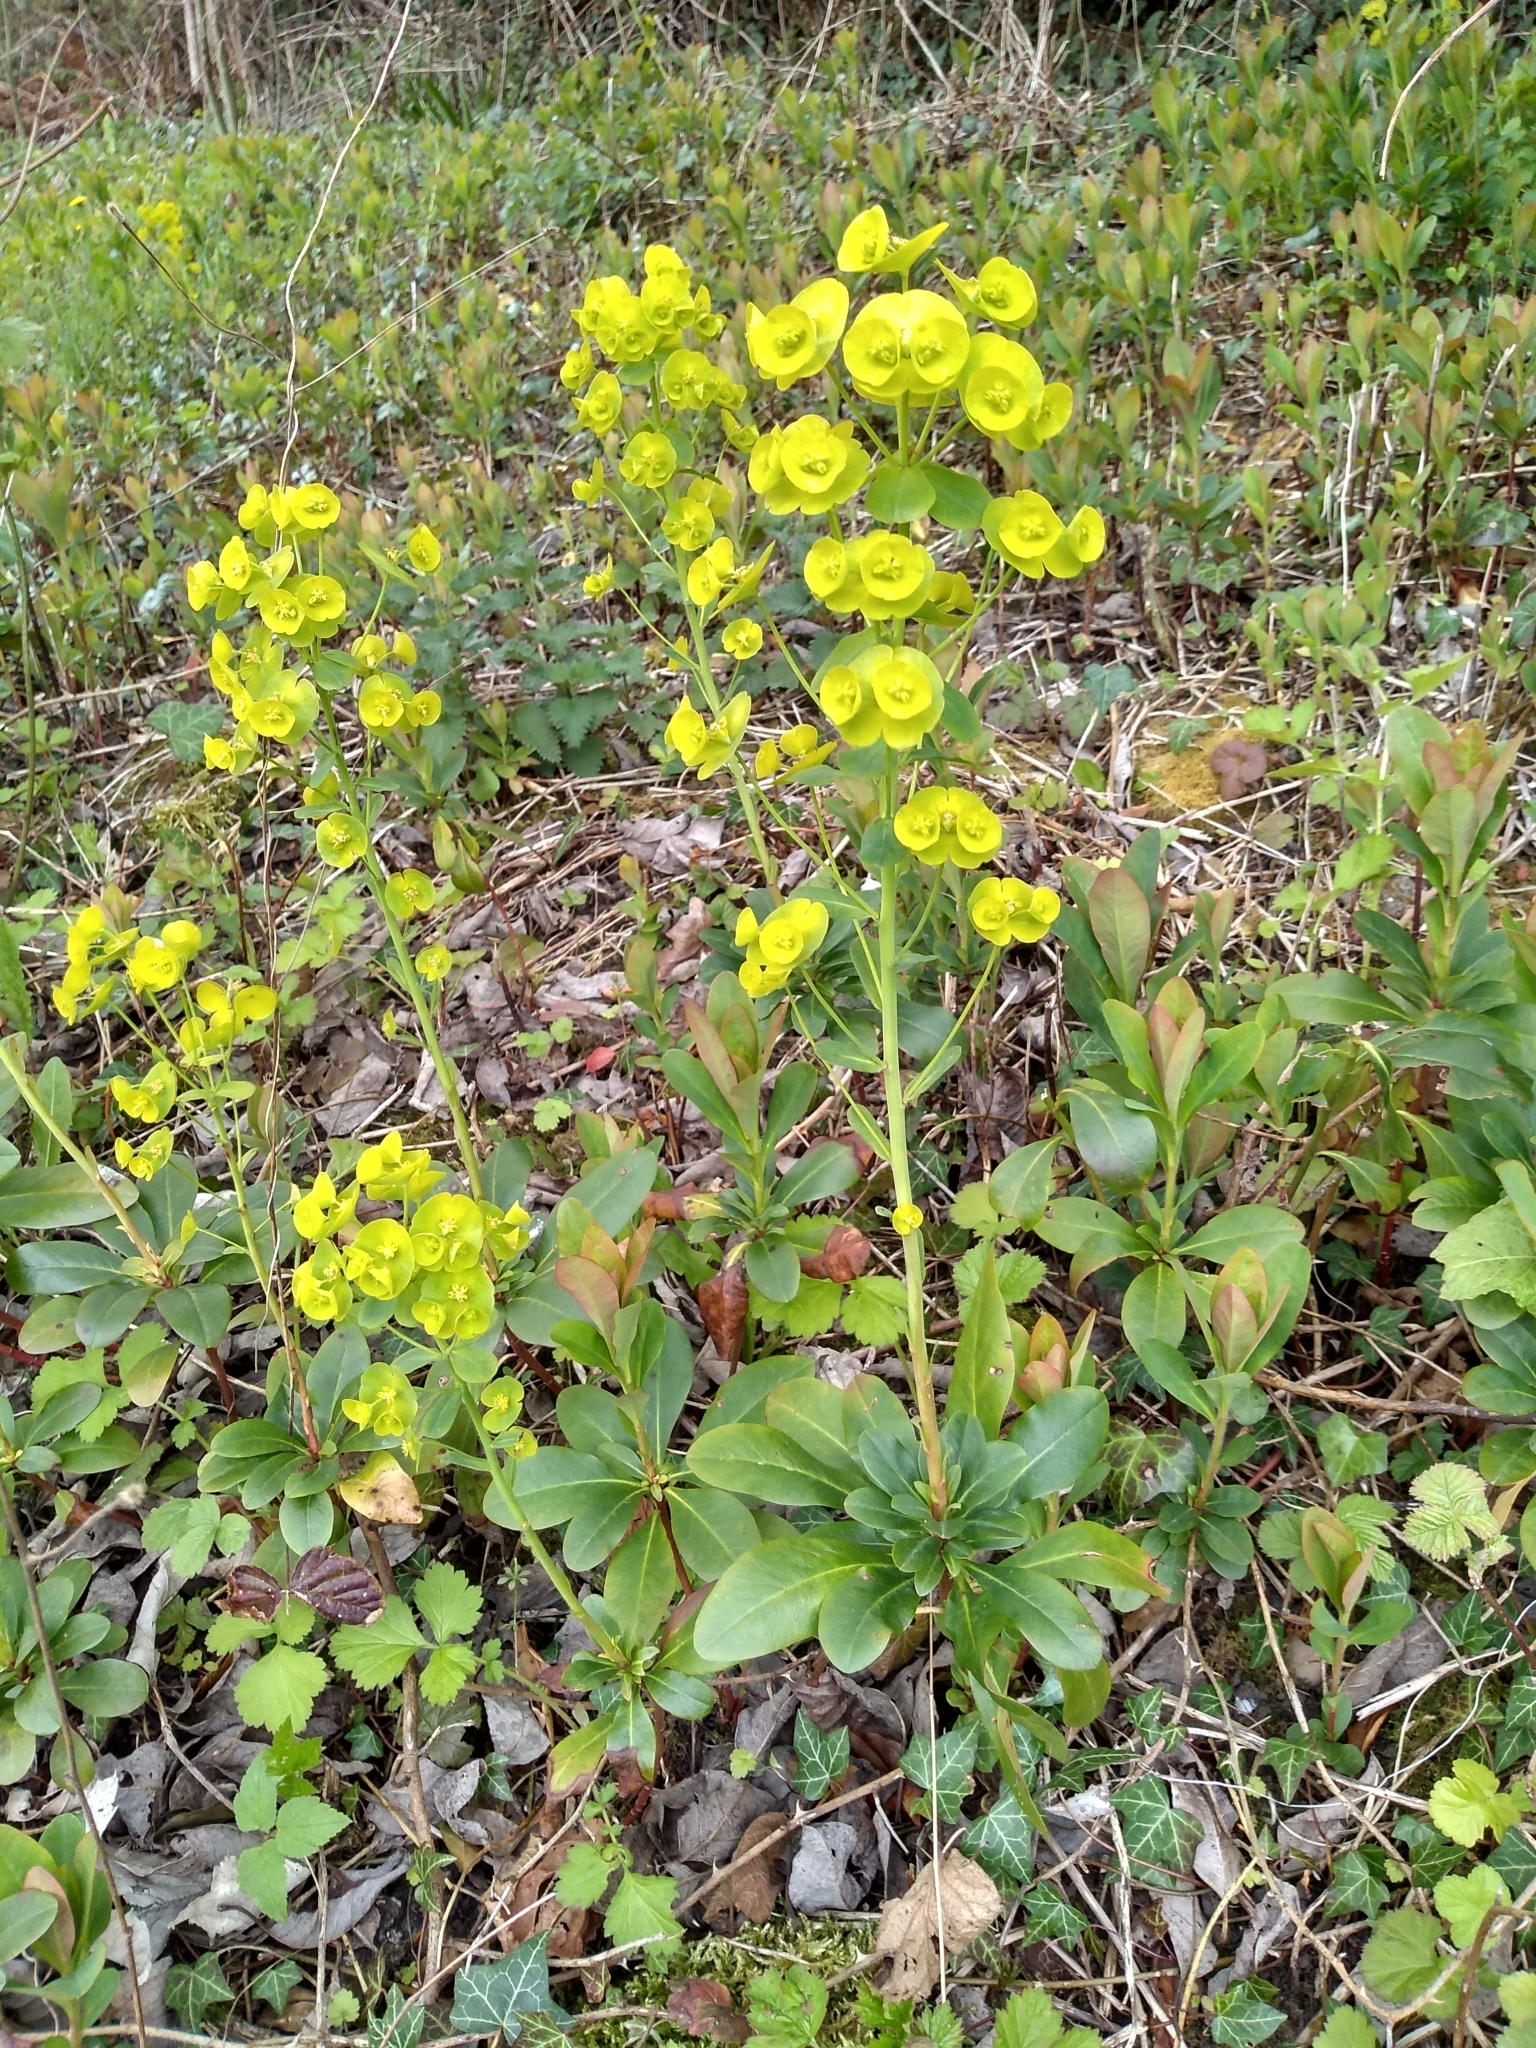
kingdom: Plantae
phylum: Tracheophyta
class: Magnoliopsida
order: Malpighiales
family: Euphorbiaceae
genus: Euphorbia
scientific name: Euphorbia amygdaloides
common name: Wood spurge
